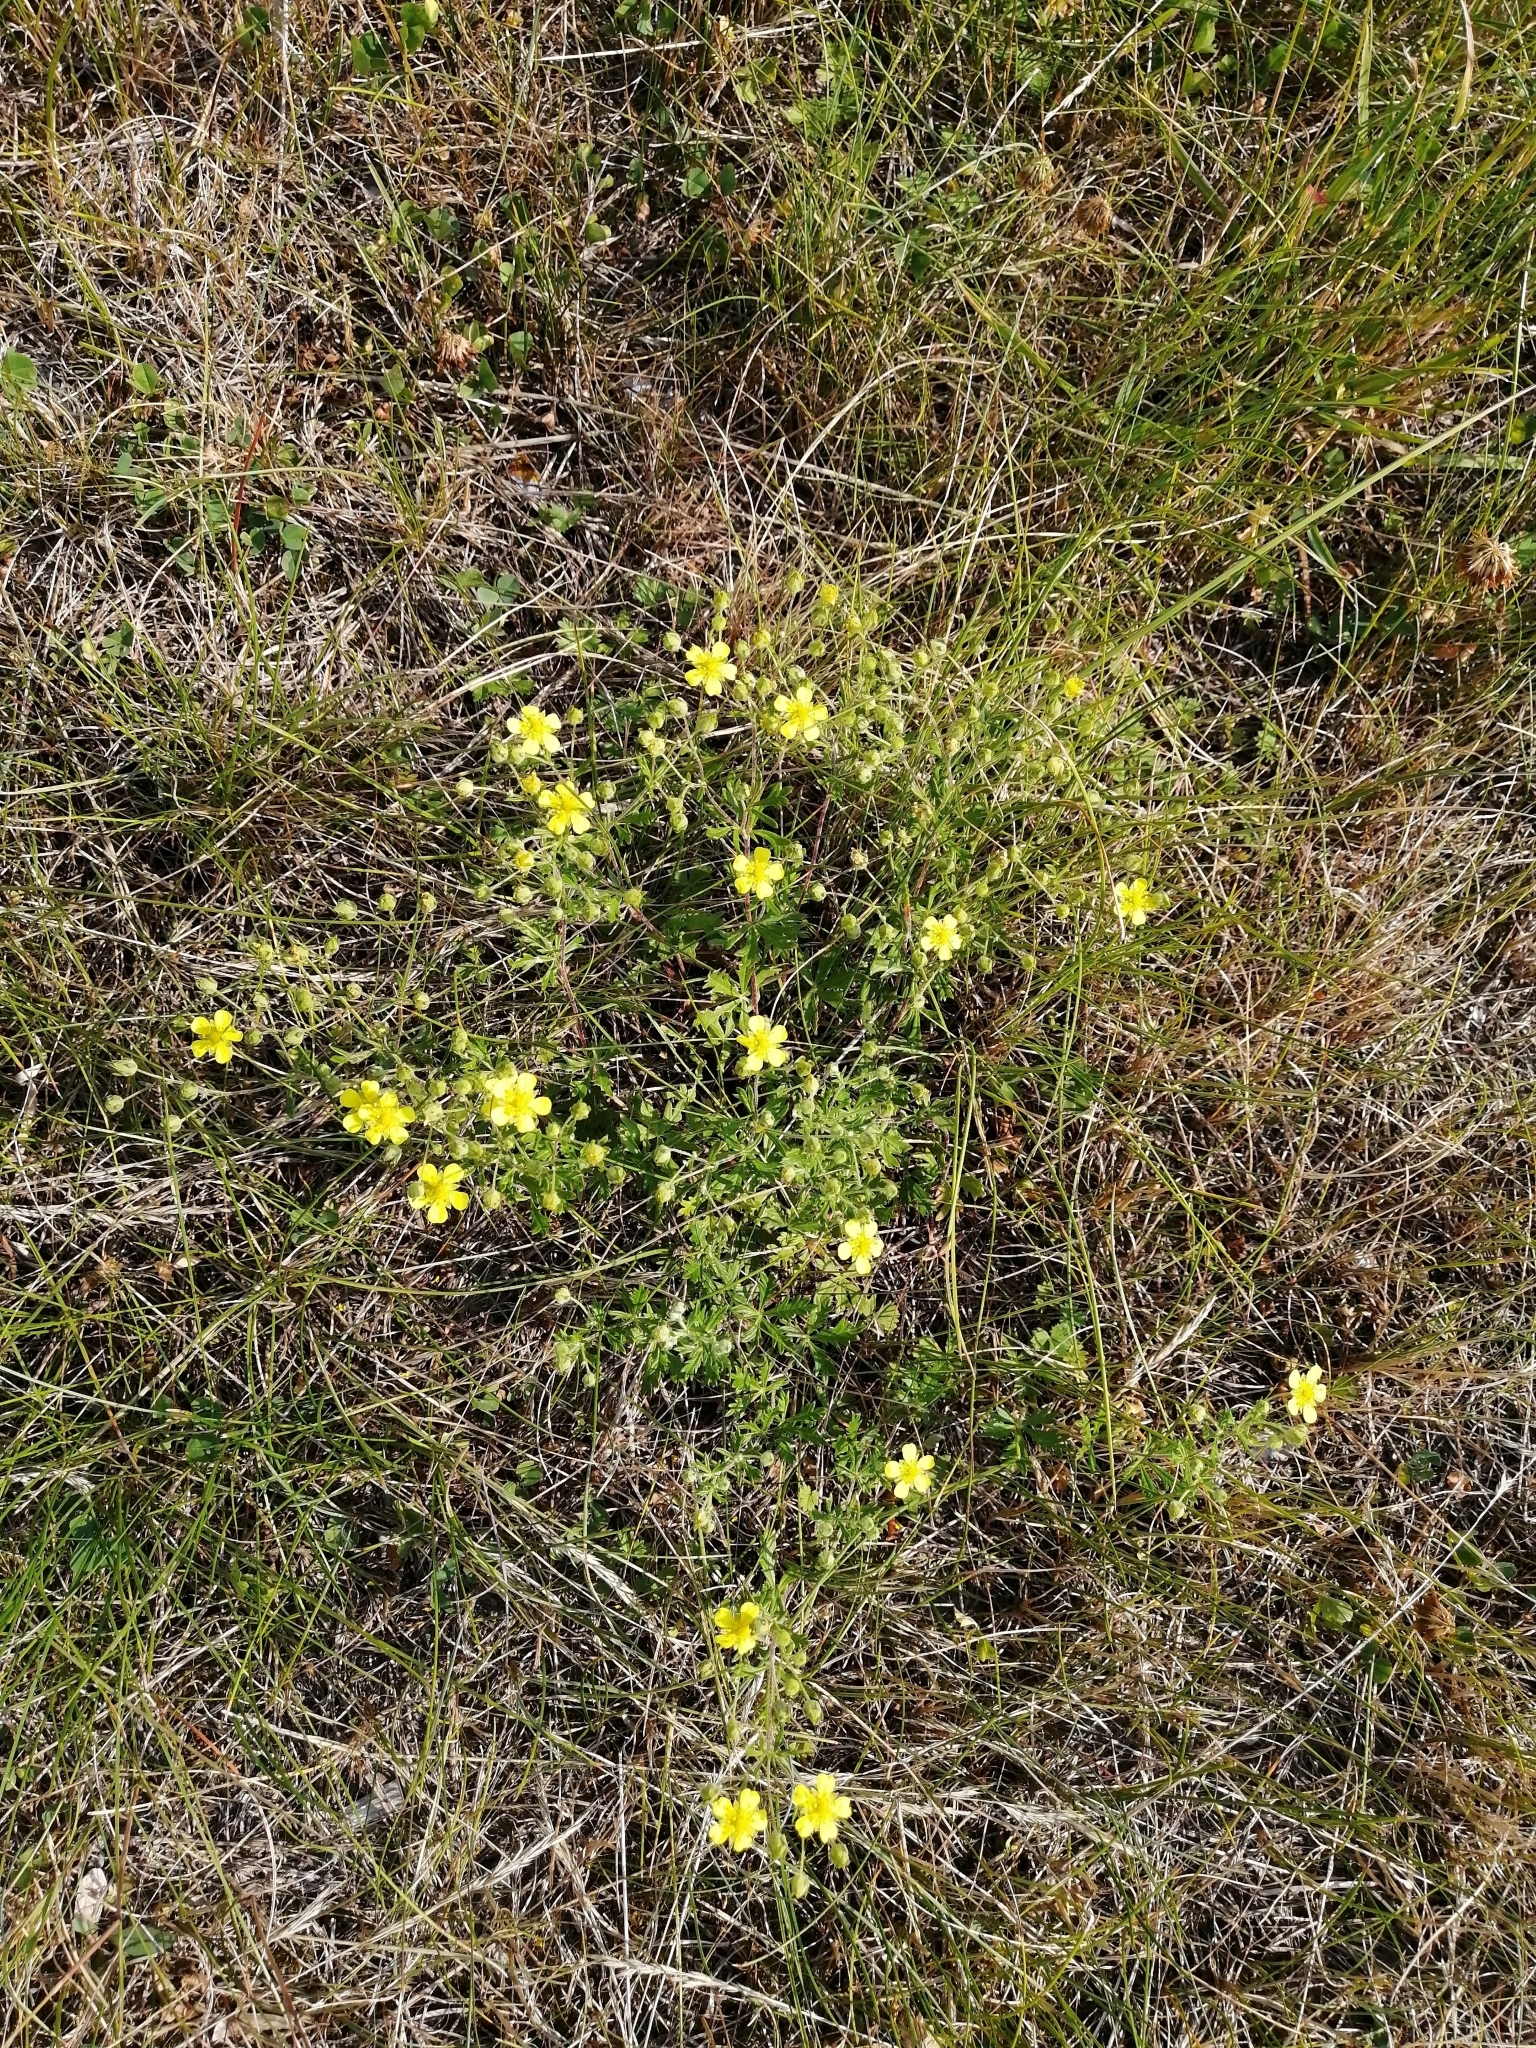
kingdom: Plantae
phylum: Tracheophyta
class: Magnoliopsida
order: Rosales
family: Rosaceae
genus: Potentilla
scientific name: Potentilla argentea
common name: Hoary cinquefoil
